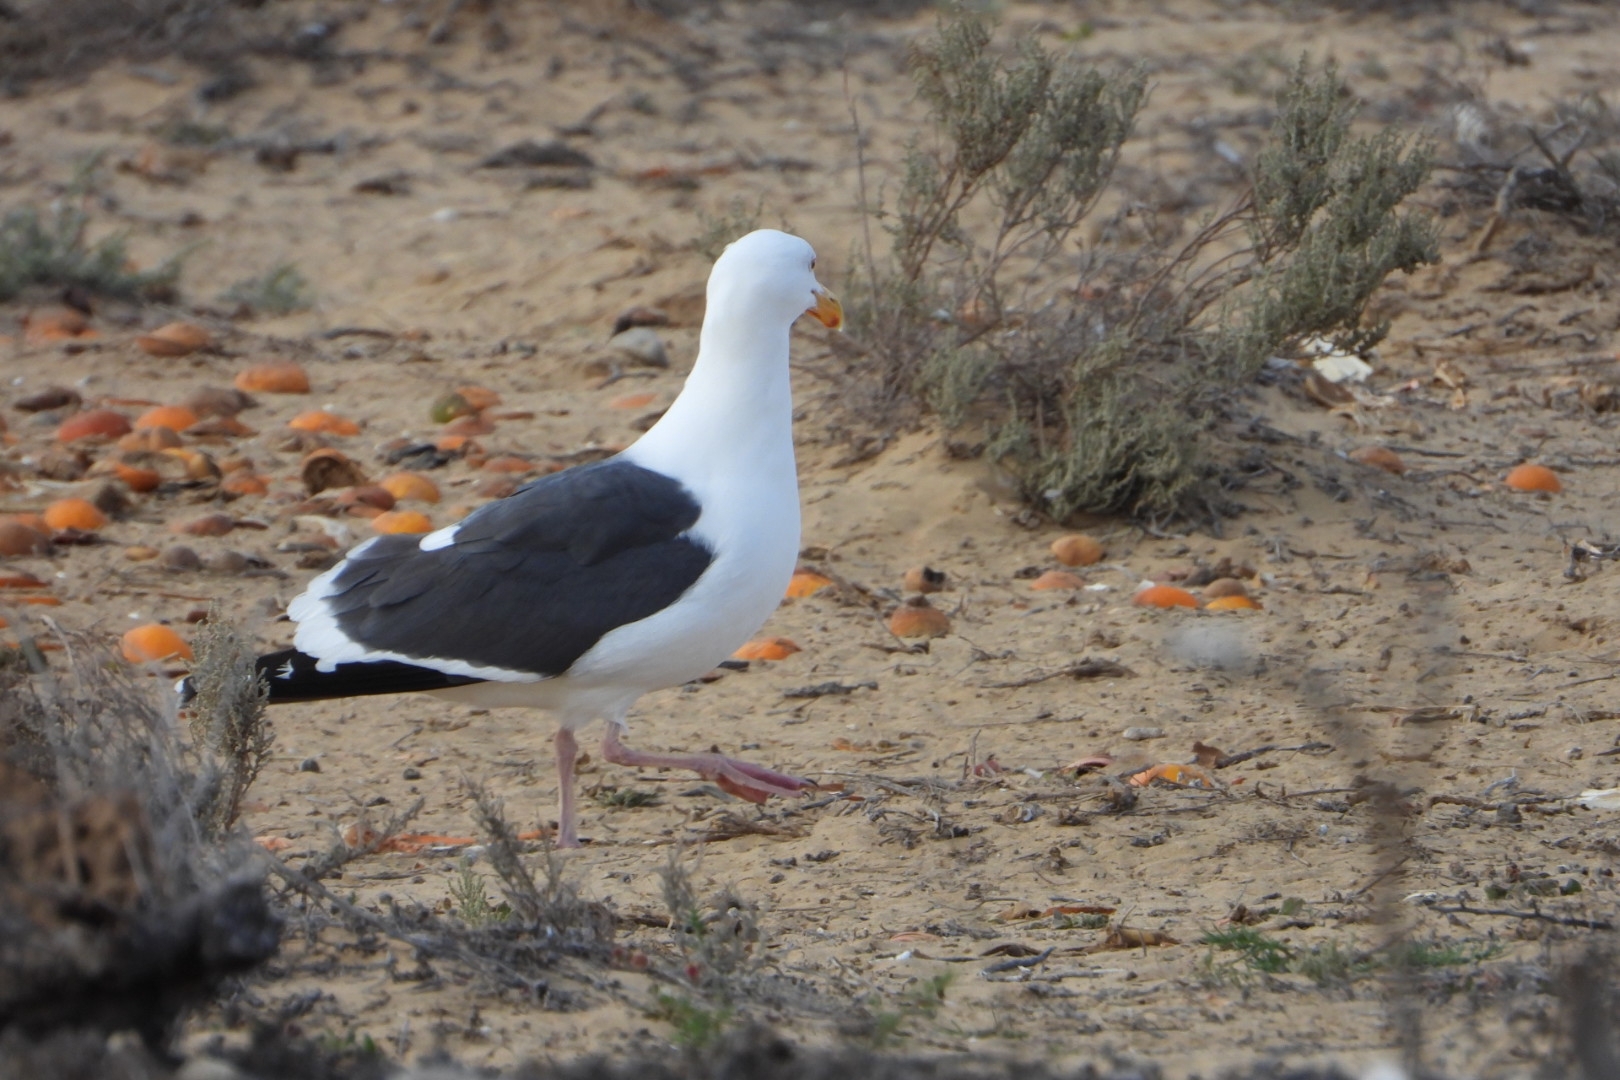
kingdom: Animalia
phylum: Chordata
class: Aves
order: Charadriiformes
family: Laridae
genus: Larus
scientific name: Larus occidentalis
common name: Western gull
